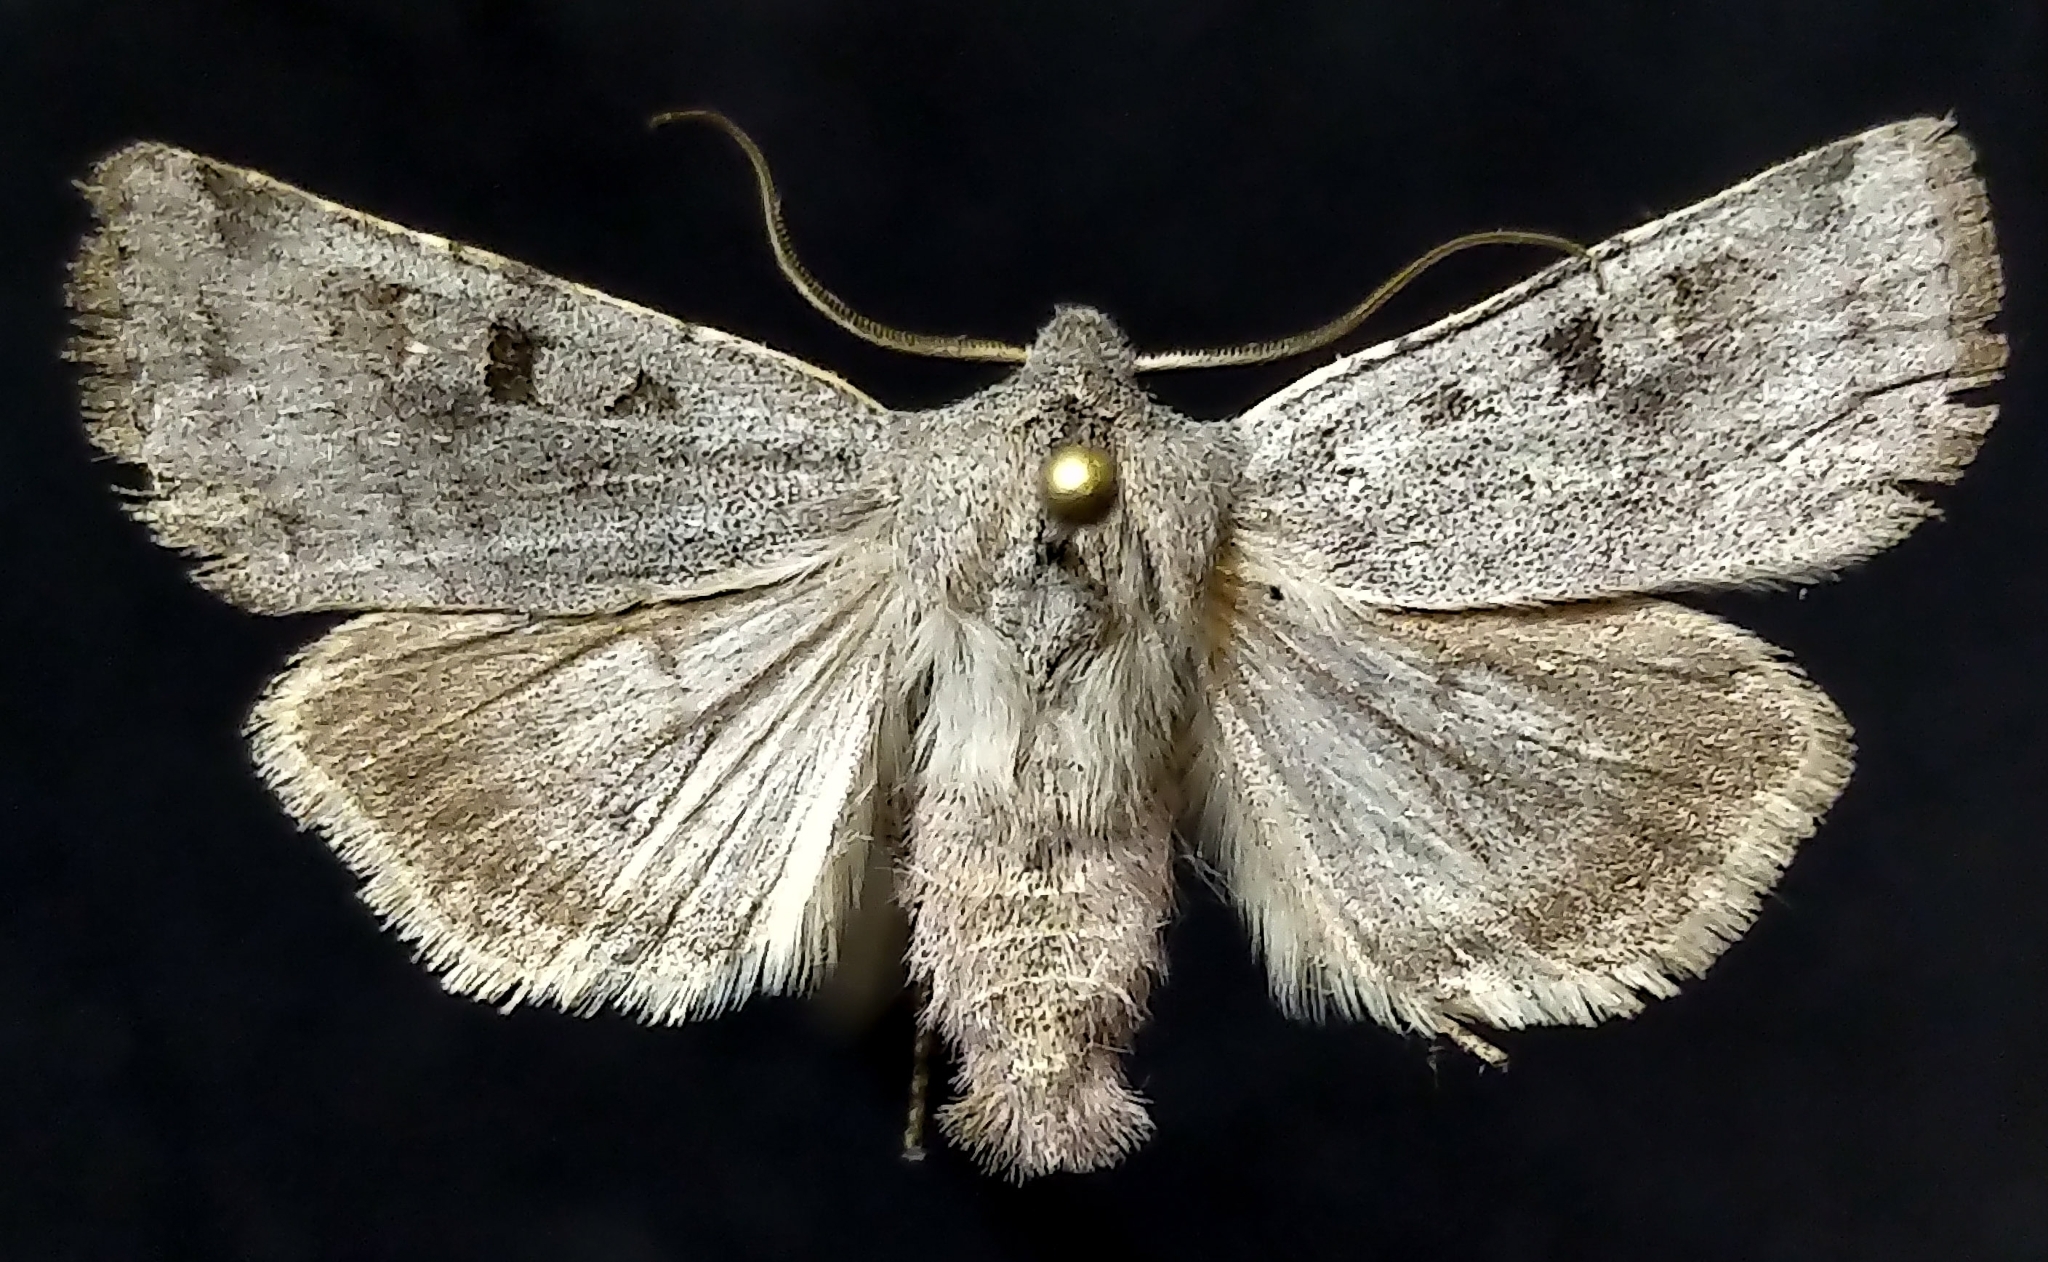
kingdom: Animalia
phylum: Arthropoda
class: Insecta
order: Lepidoptera
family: Noctuidae
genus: Euxoa
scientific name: Euxoa munis
